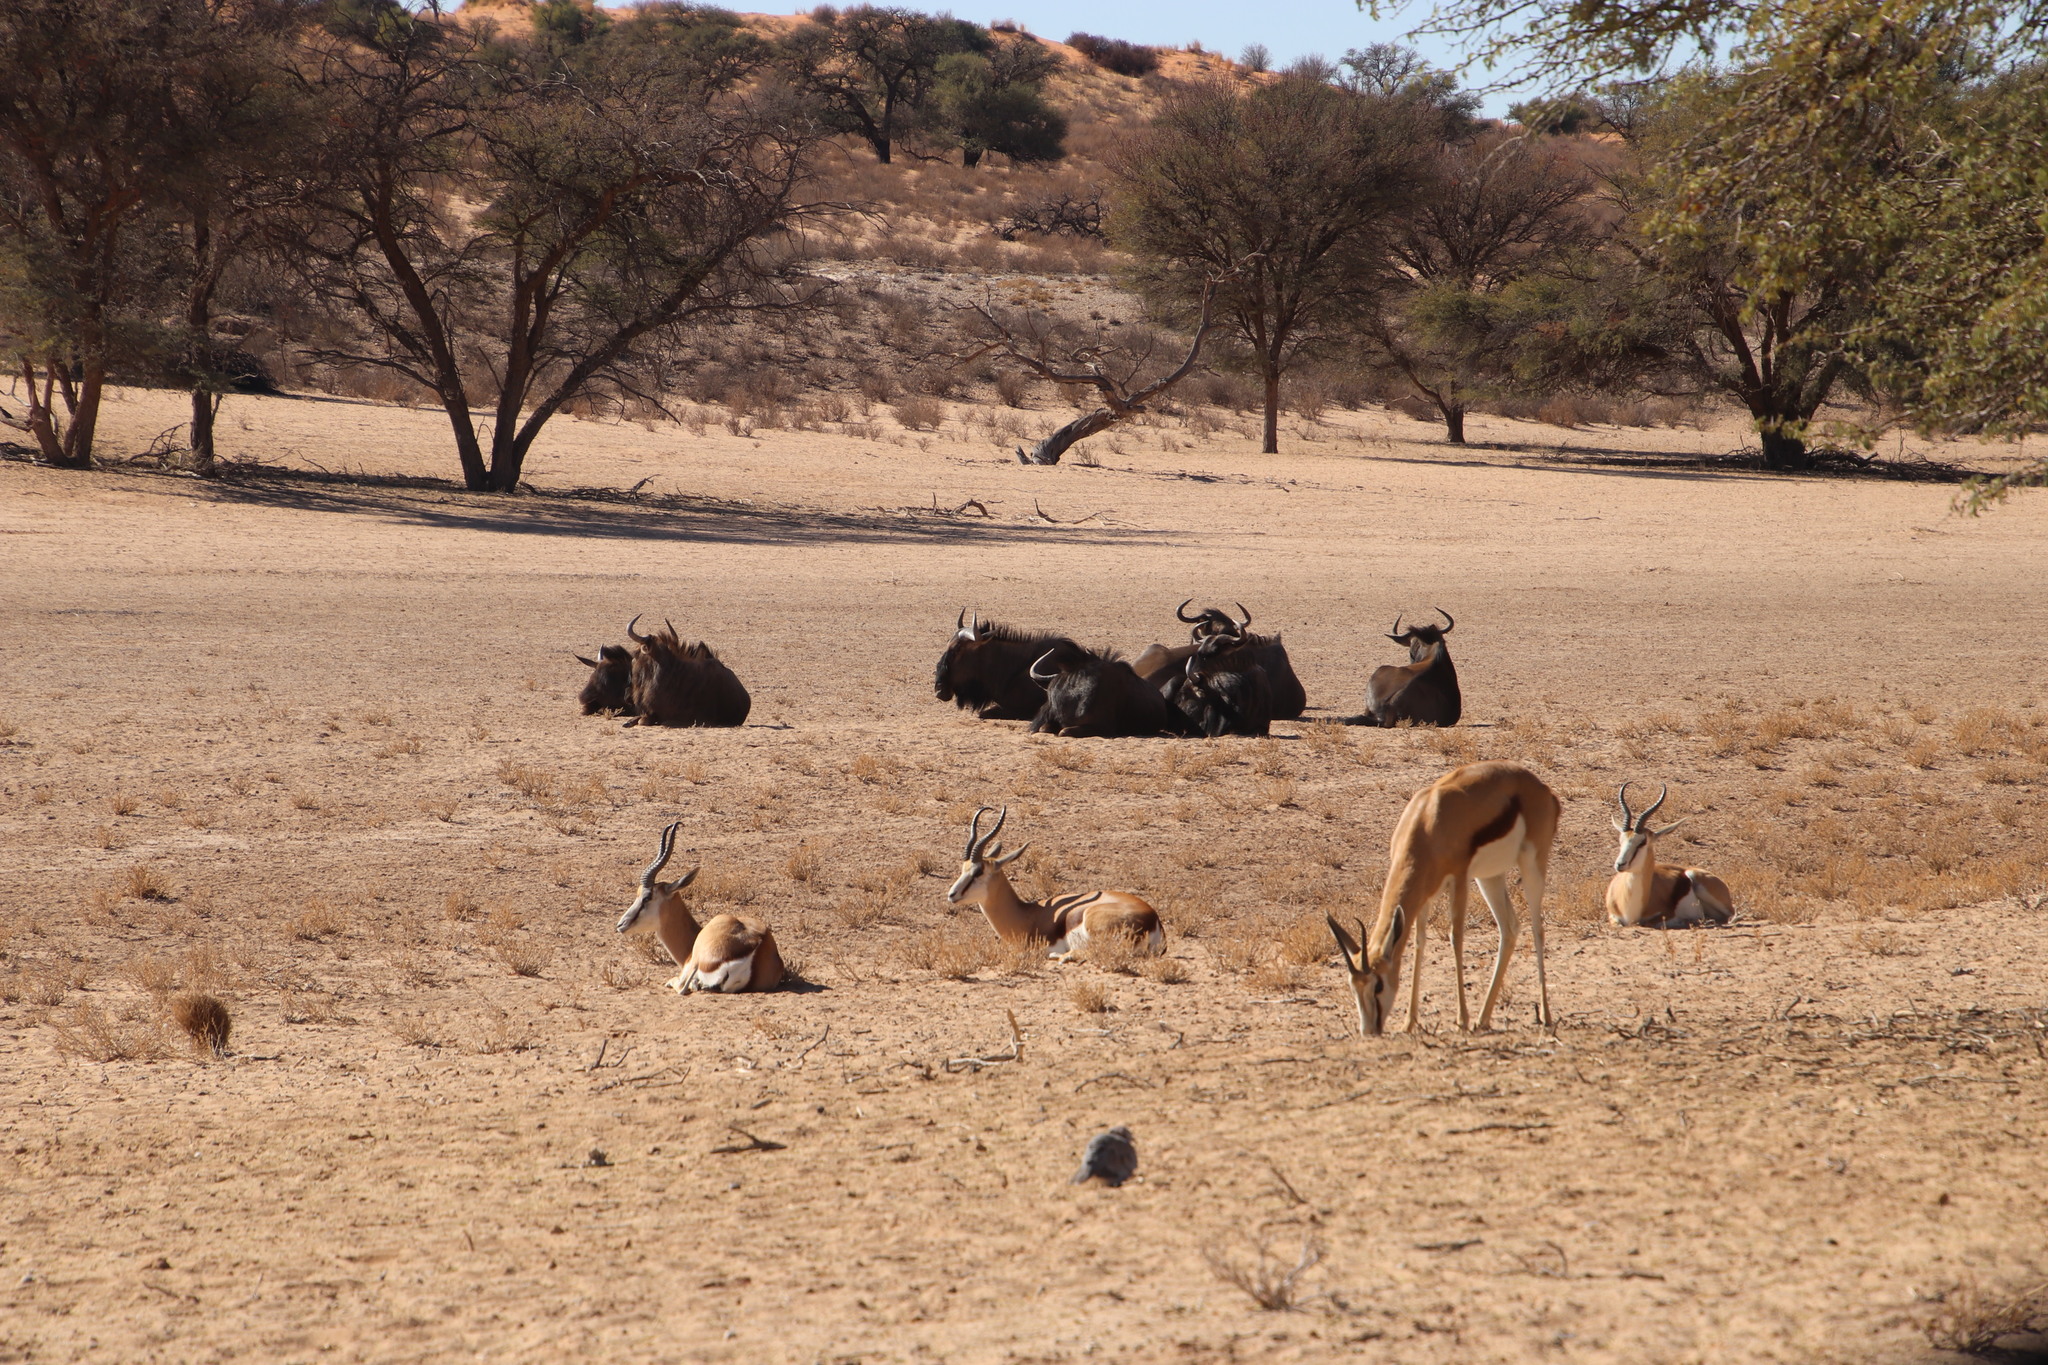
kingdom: Animalia
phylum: Chordata
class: Mammalia
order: Artiodactyla
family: Bovidae
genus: Connochaetes
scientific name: Connochaetes taurinus
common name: Blue wildebeest
